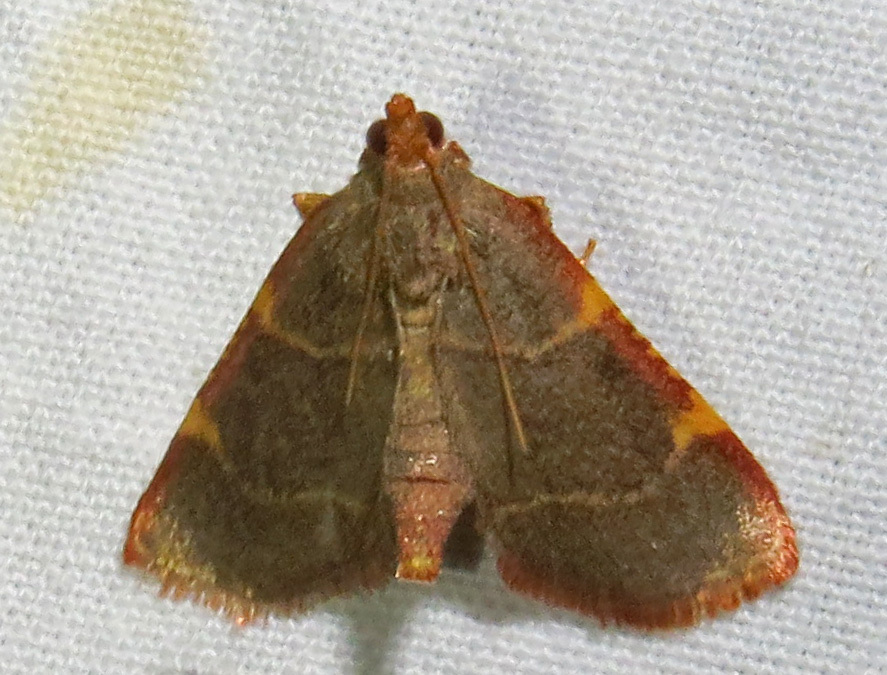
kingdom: Animalia
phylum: Arthropoda
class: Insecta
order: Lepidoptera
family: Pyralidae
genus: Hypsopygia
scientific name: Hypsopygia binodulalis
